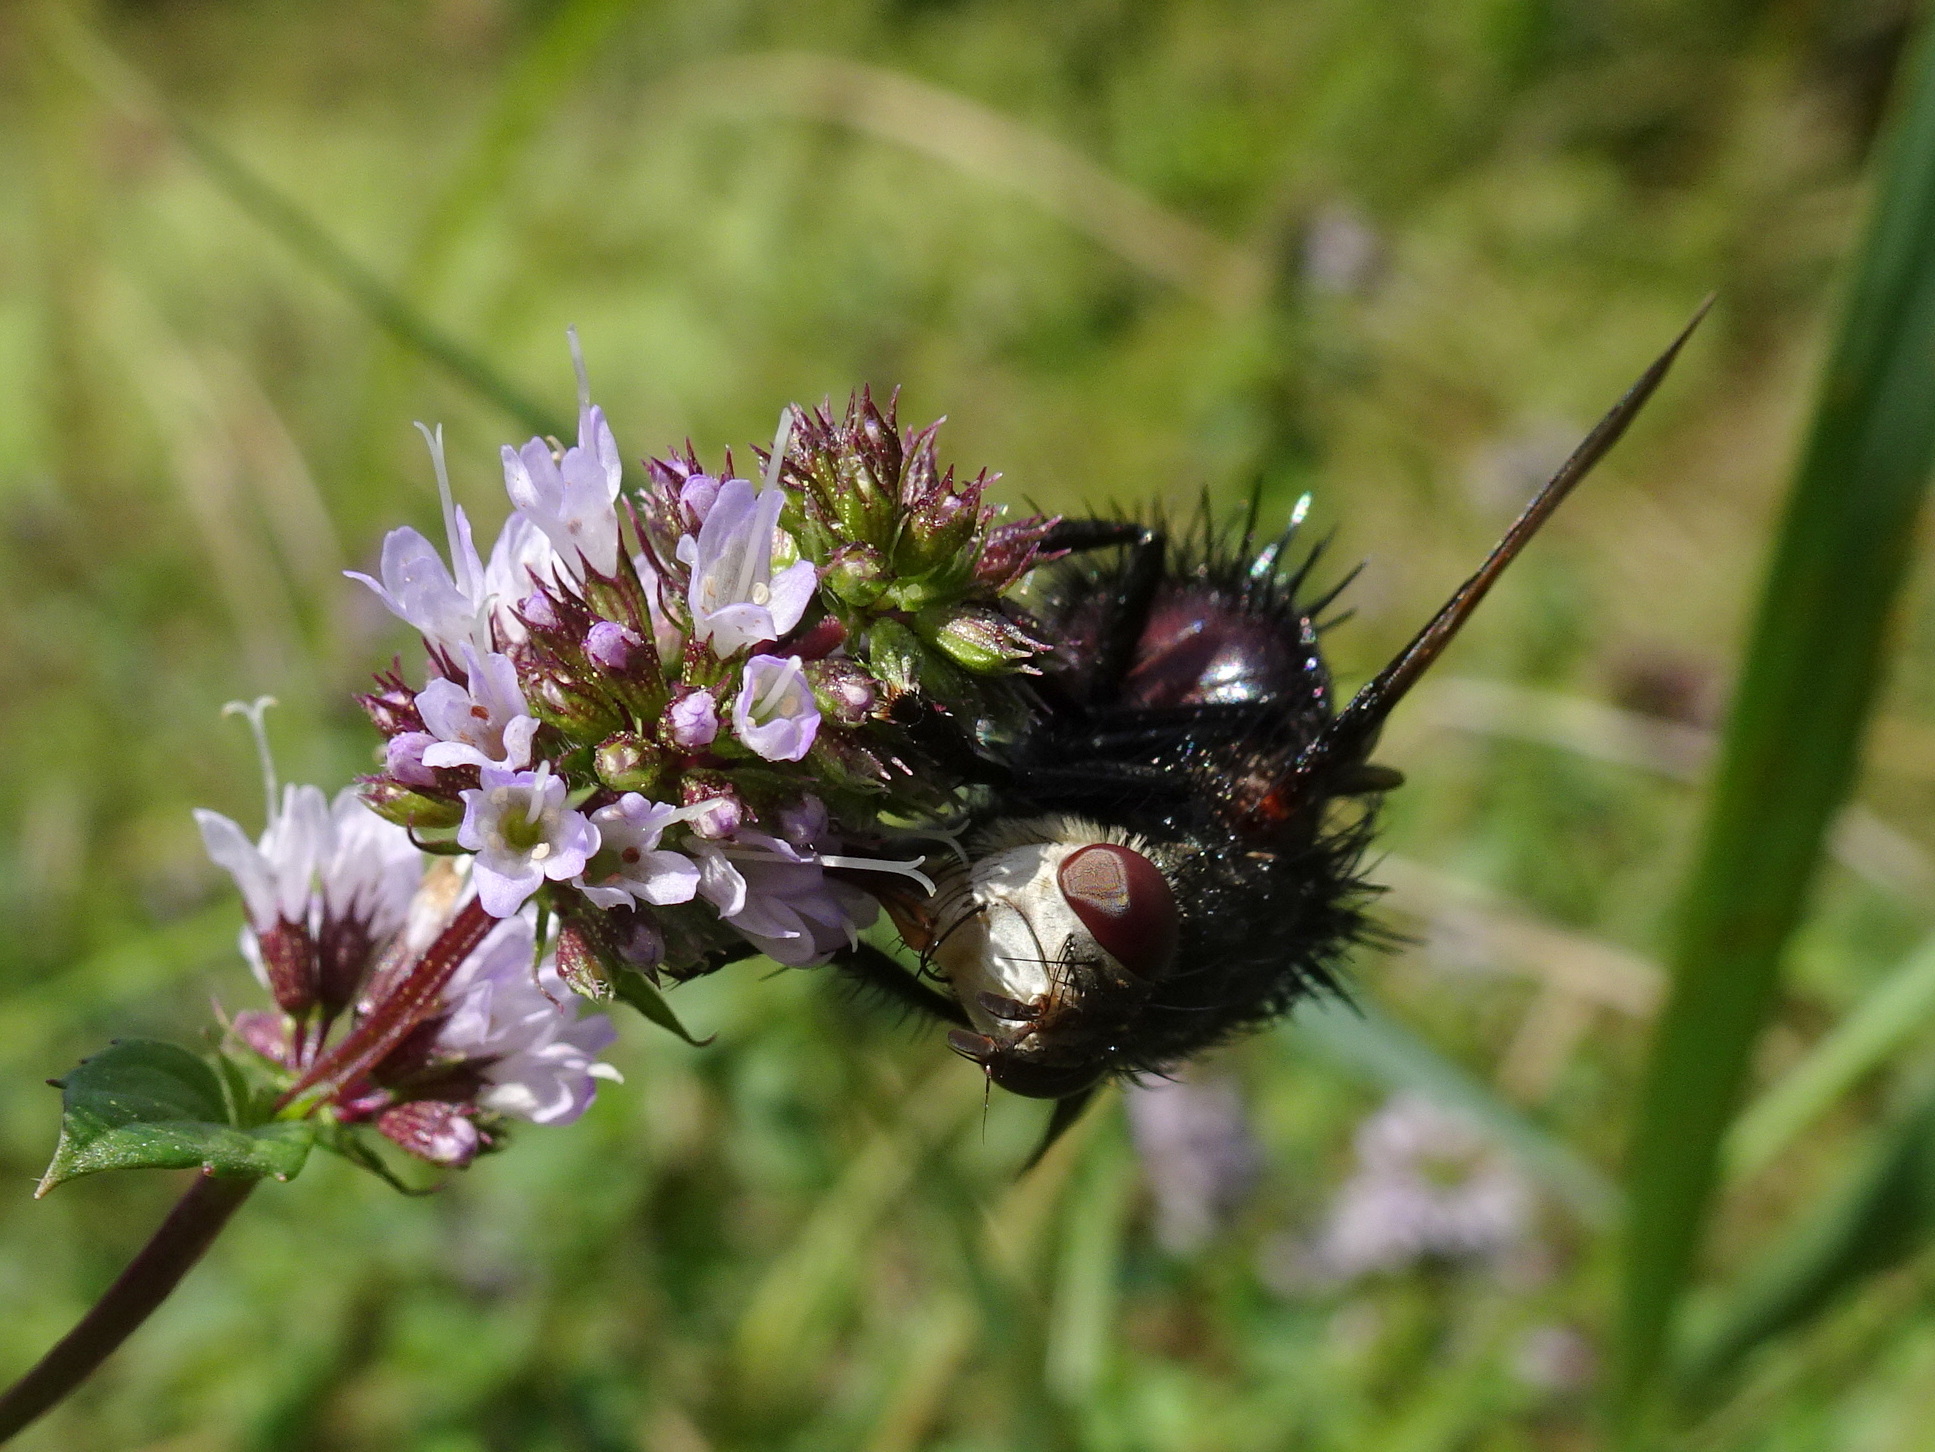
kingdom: Animalia
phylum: Arthropoda
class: Insecta
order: Diptera
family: Tachinidae
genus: Juriniopsis
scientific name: Juriniopsis adusta
